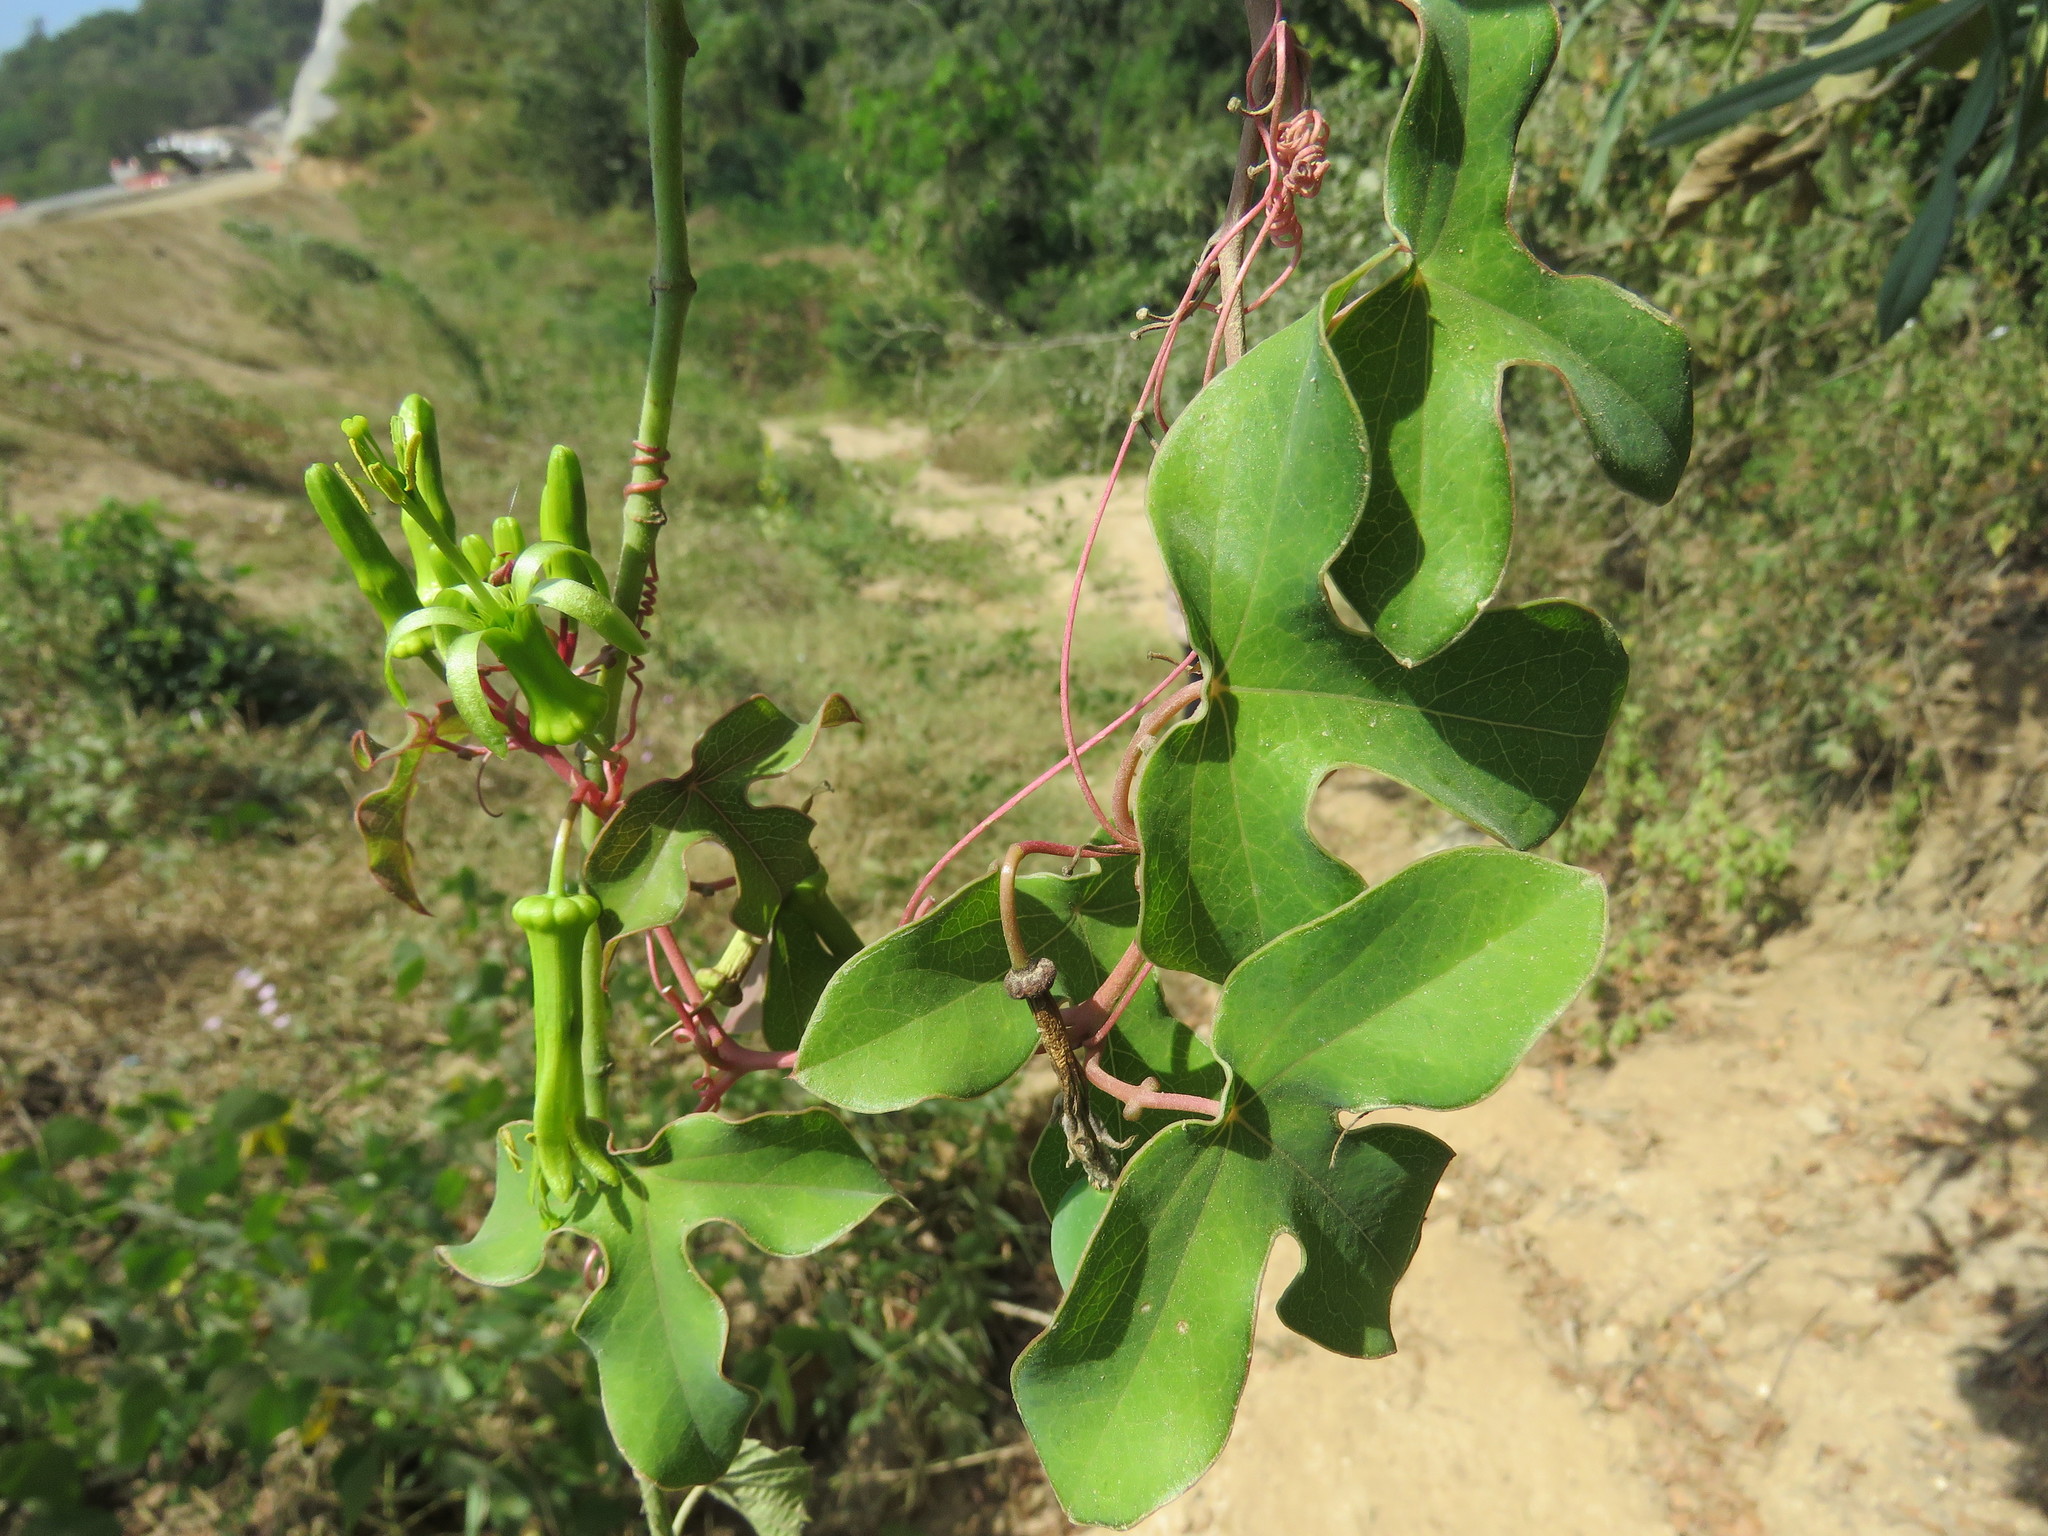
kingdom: Plantae
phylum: Tracheophyta
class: Magnoliopsida
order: Malpighiales
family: Passifloraceae
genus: Passiflora
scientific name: Passiflora viridiflora
